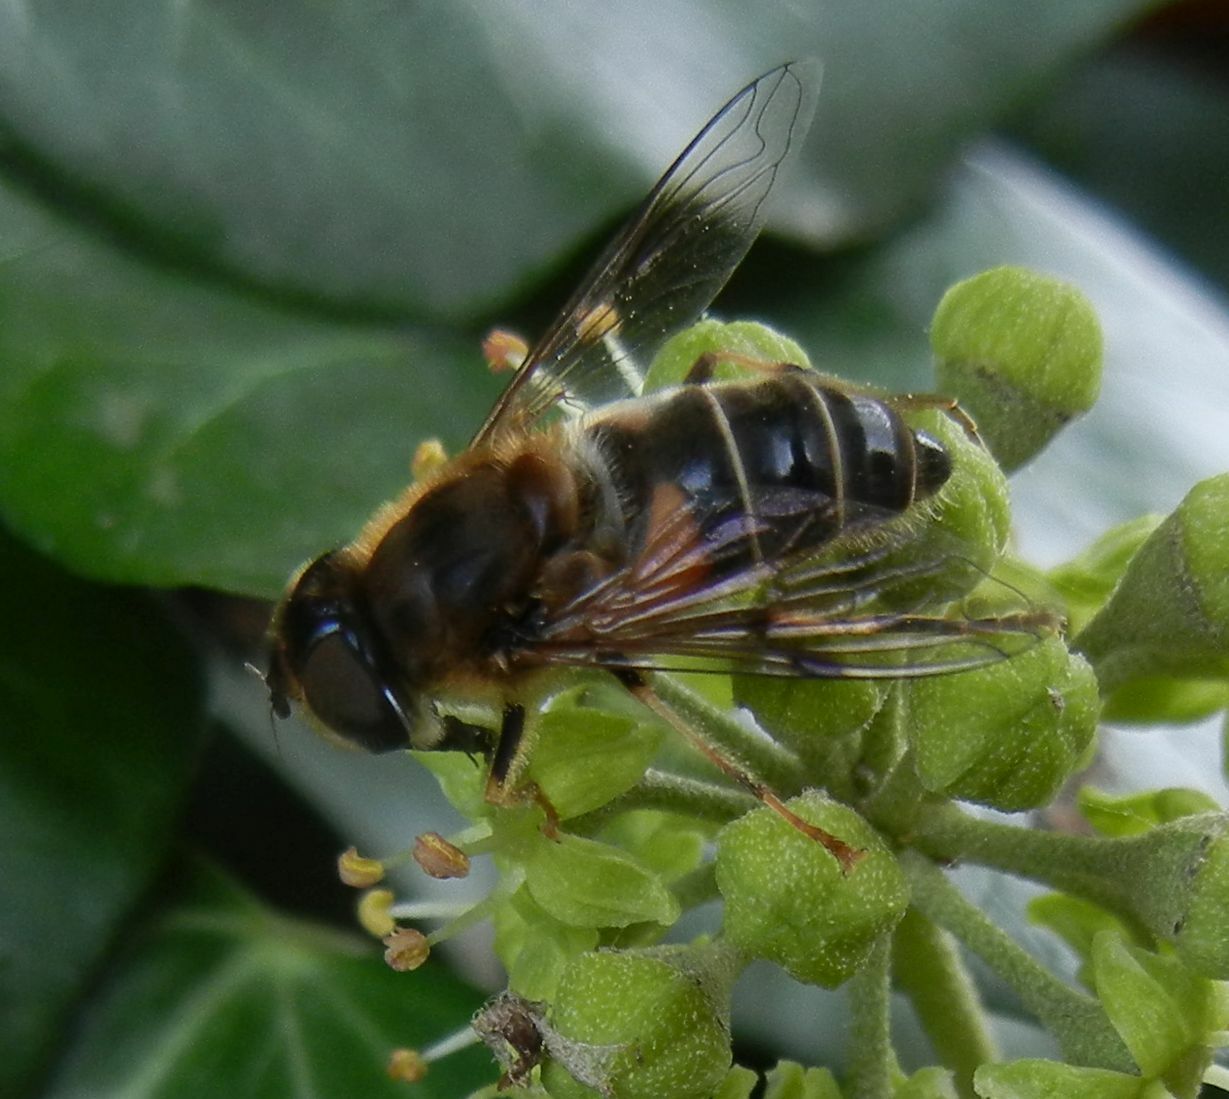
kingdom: Animalia
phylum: Arthropoda
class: Insecta
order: Diptera
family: Syrphidae
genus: Eristalis
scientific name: Eristalis pertinax
